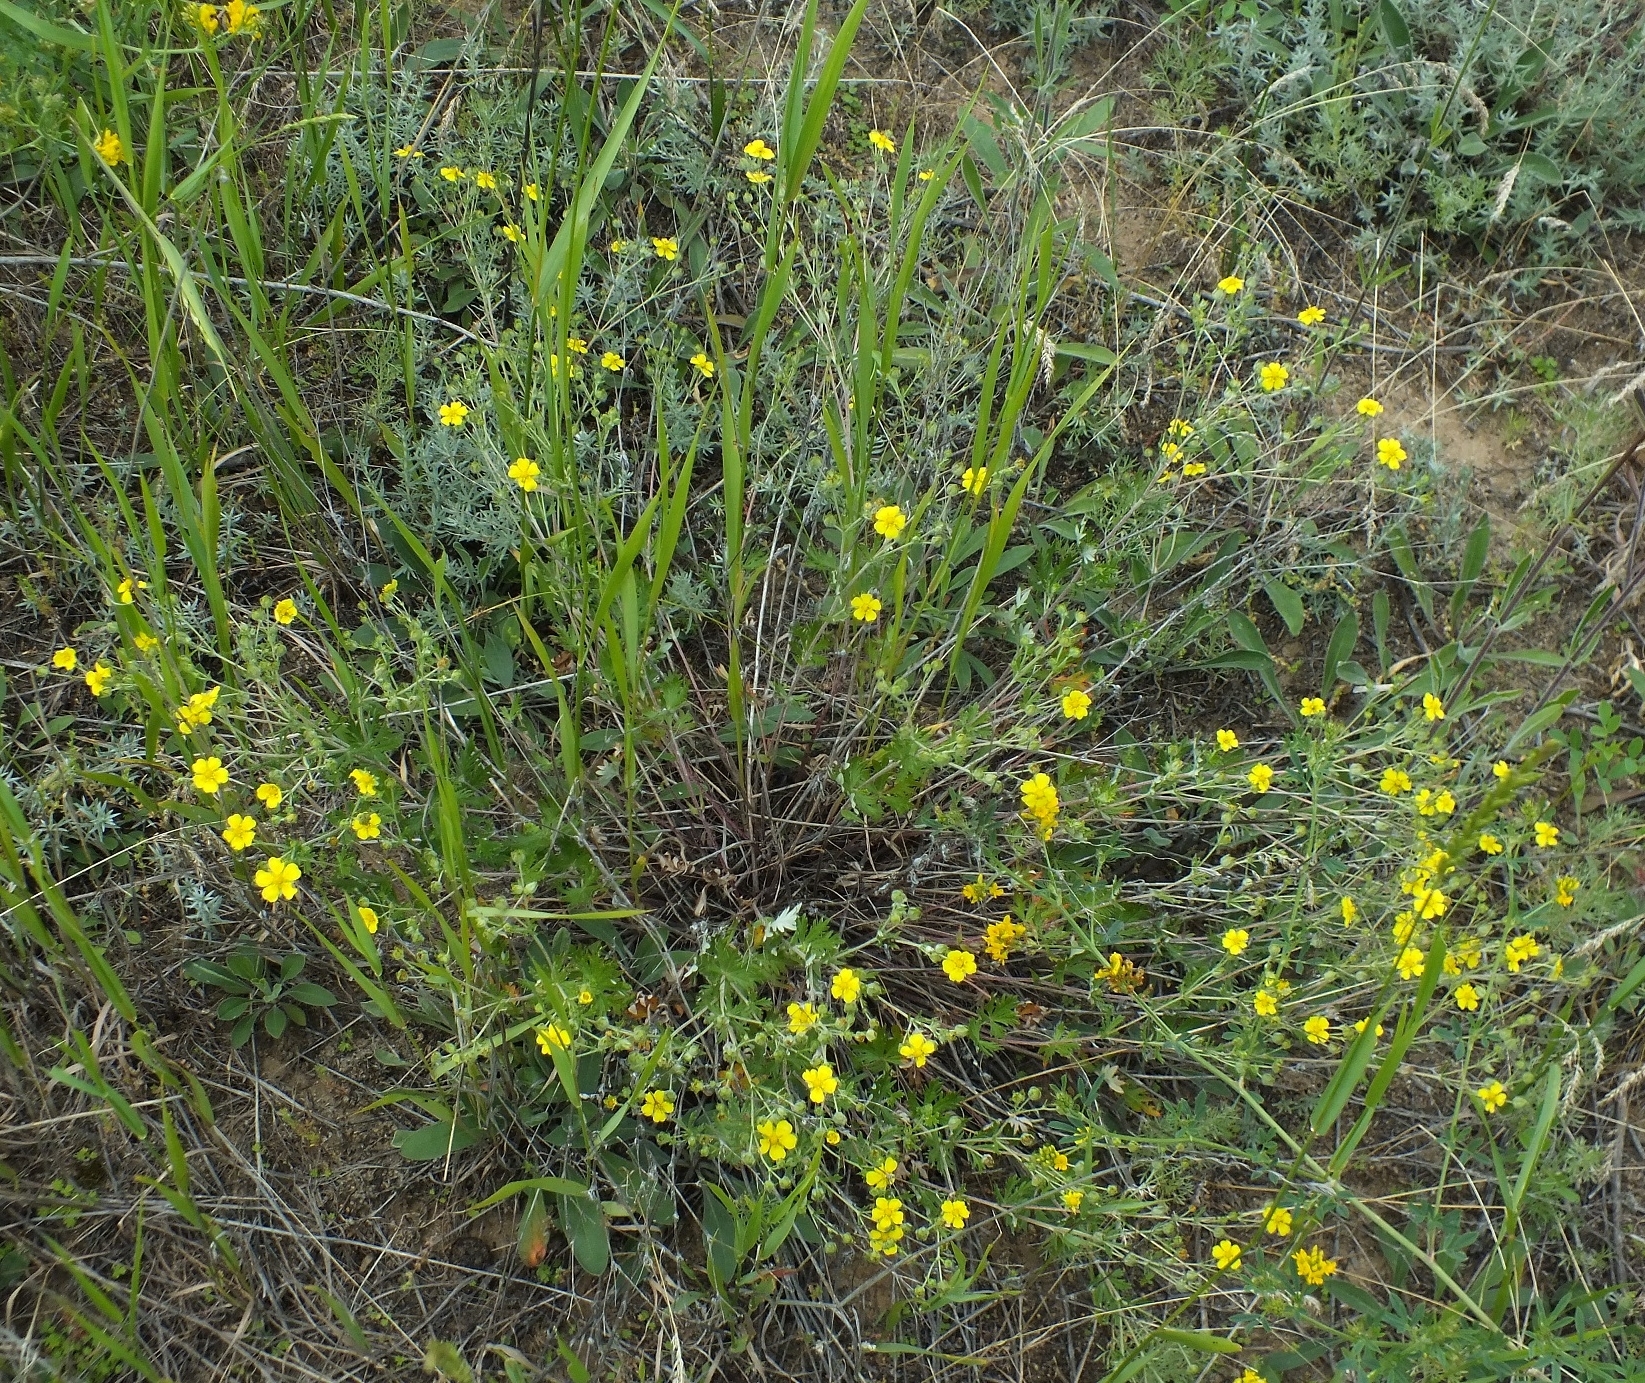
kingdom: Plantae
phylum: Tracheophyta
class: Magnoliopsida
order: Rosales
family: Rosaceae
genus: Potentilla
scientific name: Potentilla argentea
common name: Hoary cinquefoil
